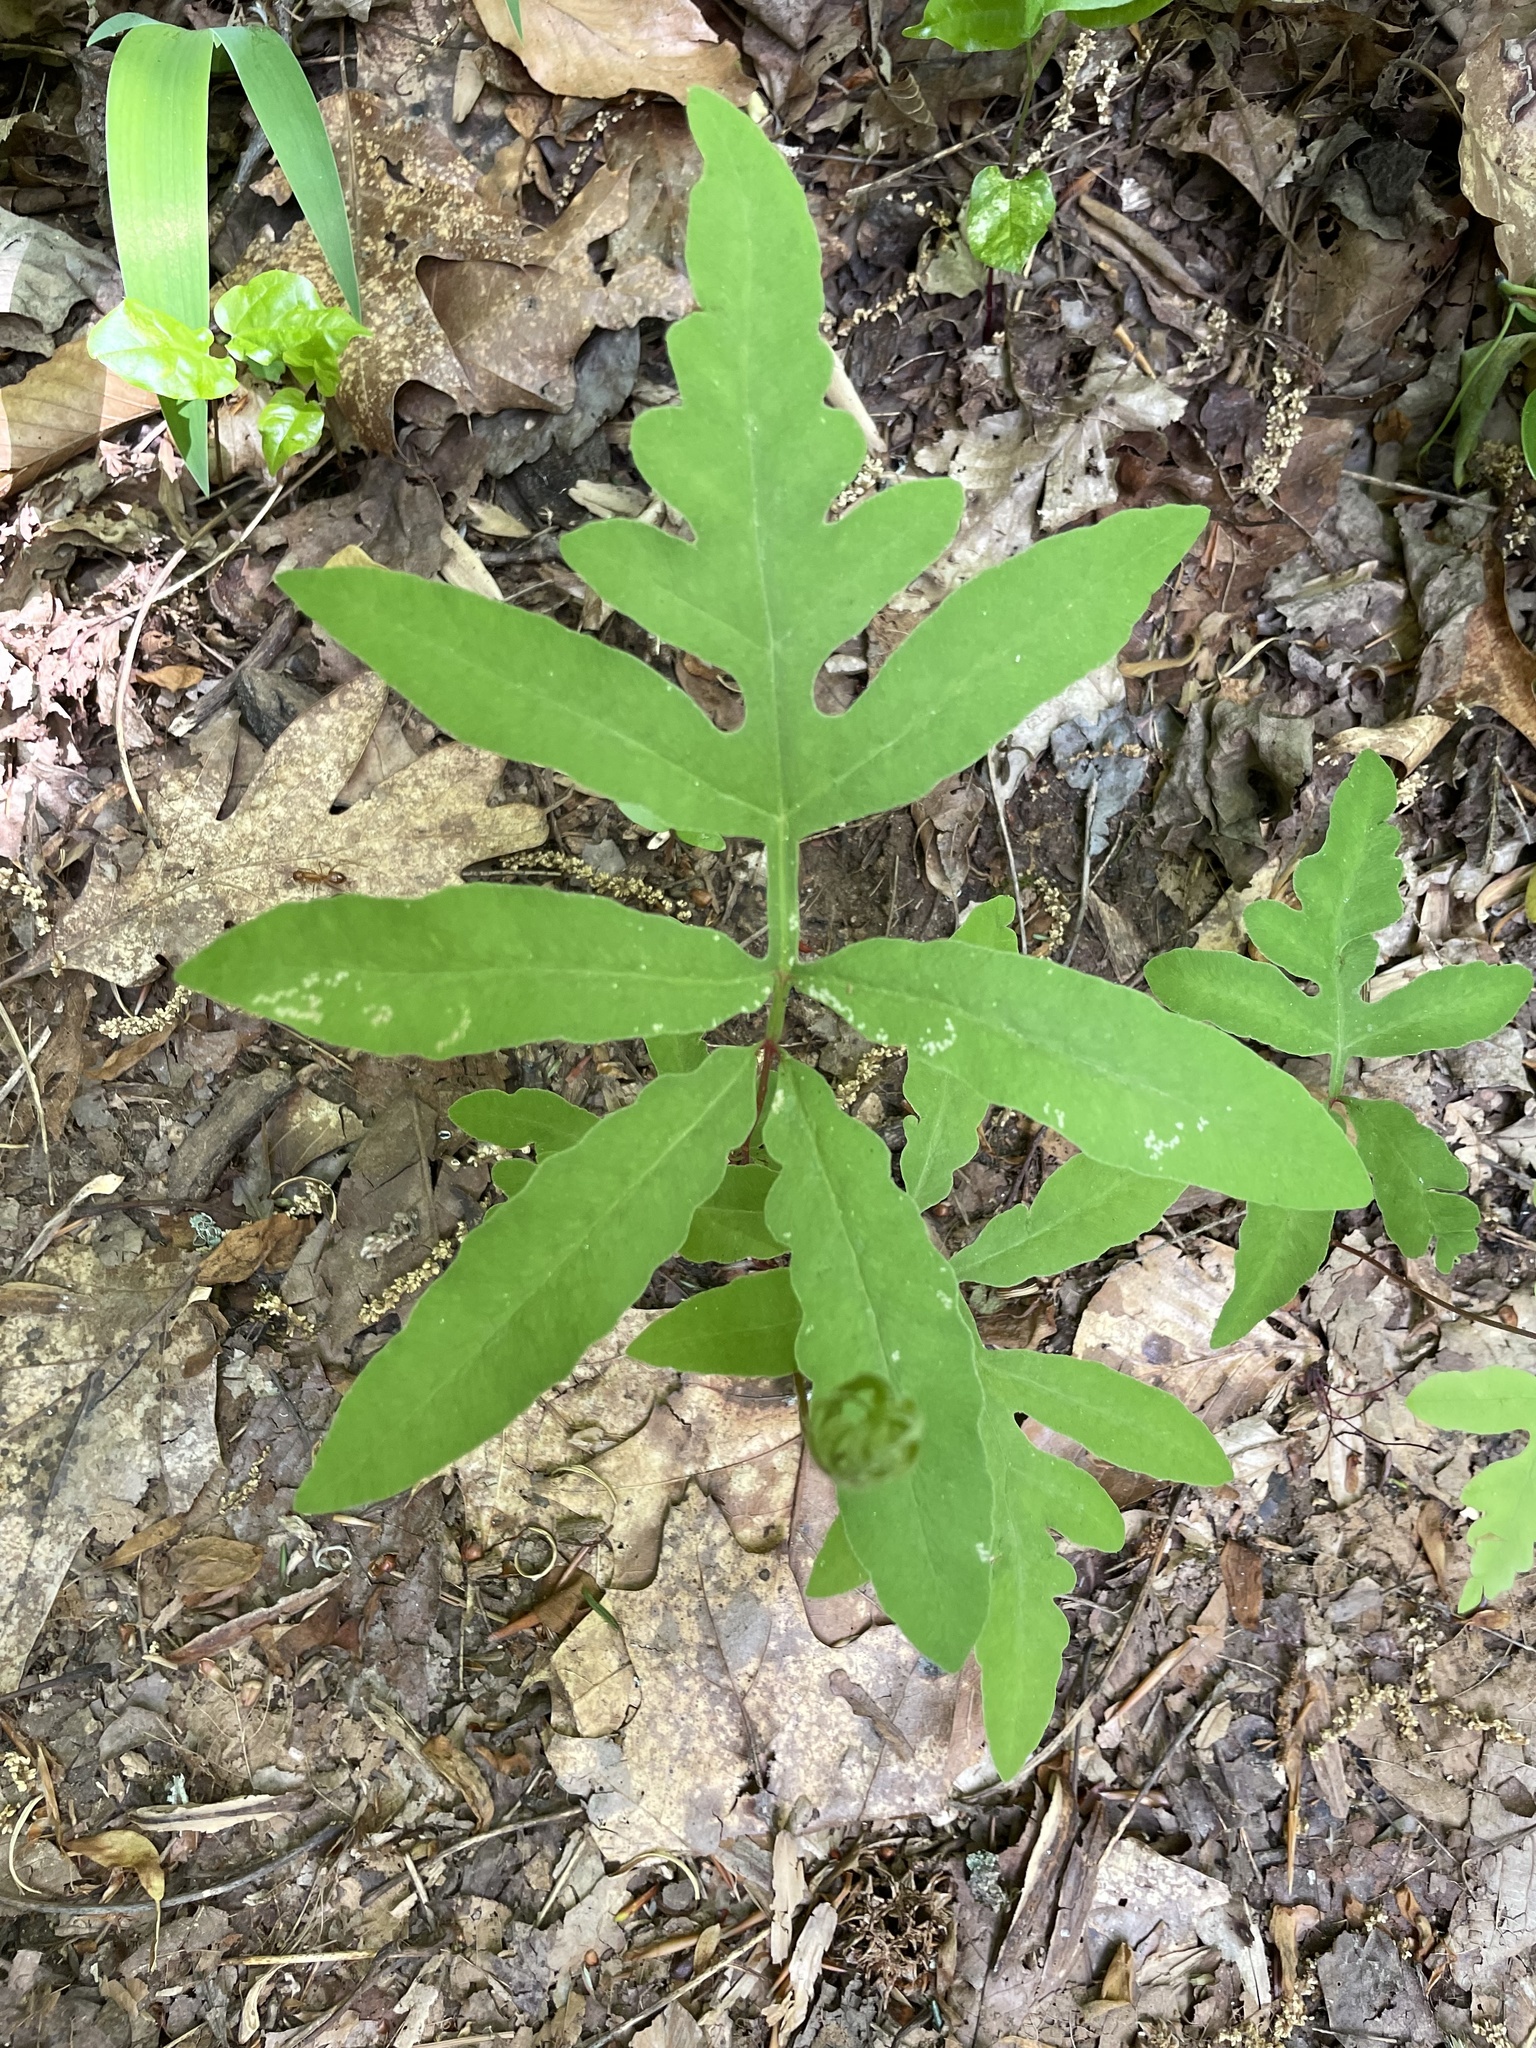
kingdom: Plantae
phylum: Tracheophyta
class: Polypodiopsida
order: Polypodiales
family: Onocleaceae
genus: Onoclea
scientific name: Onoclea sensibilis
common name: Sensitive fern
